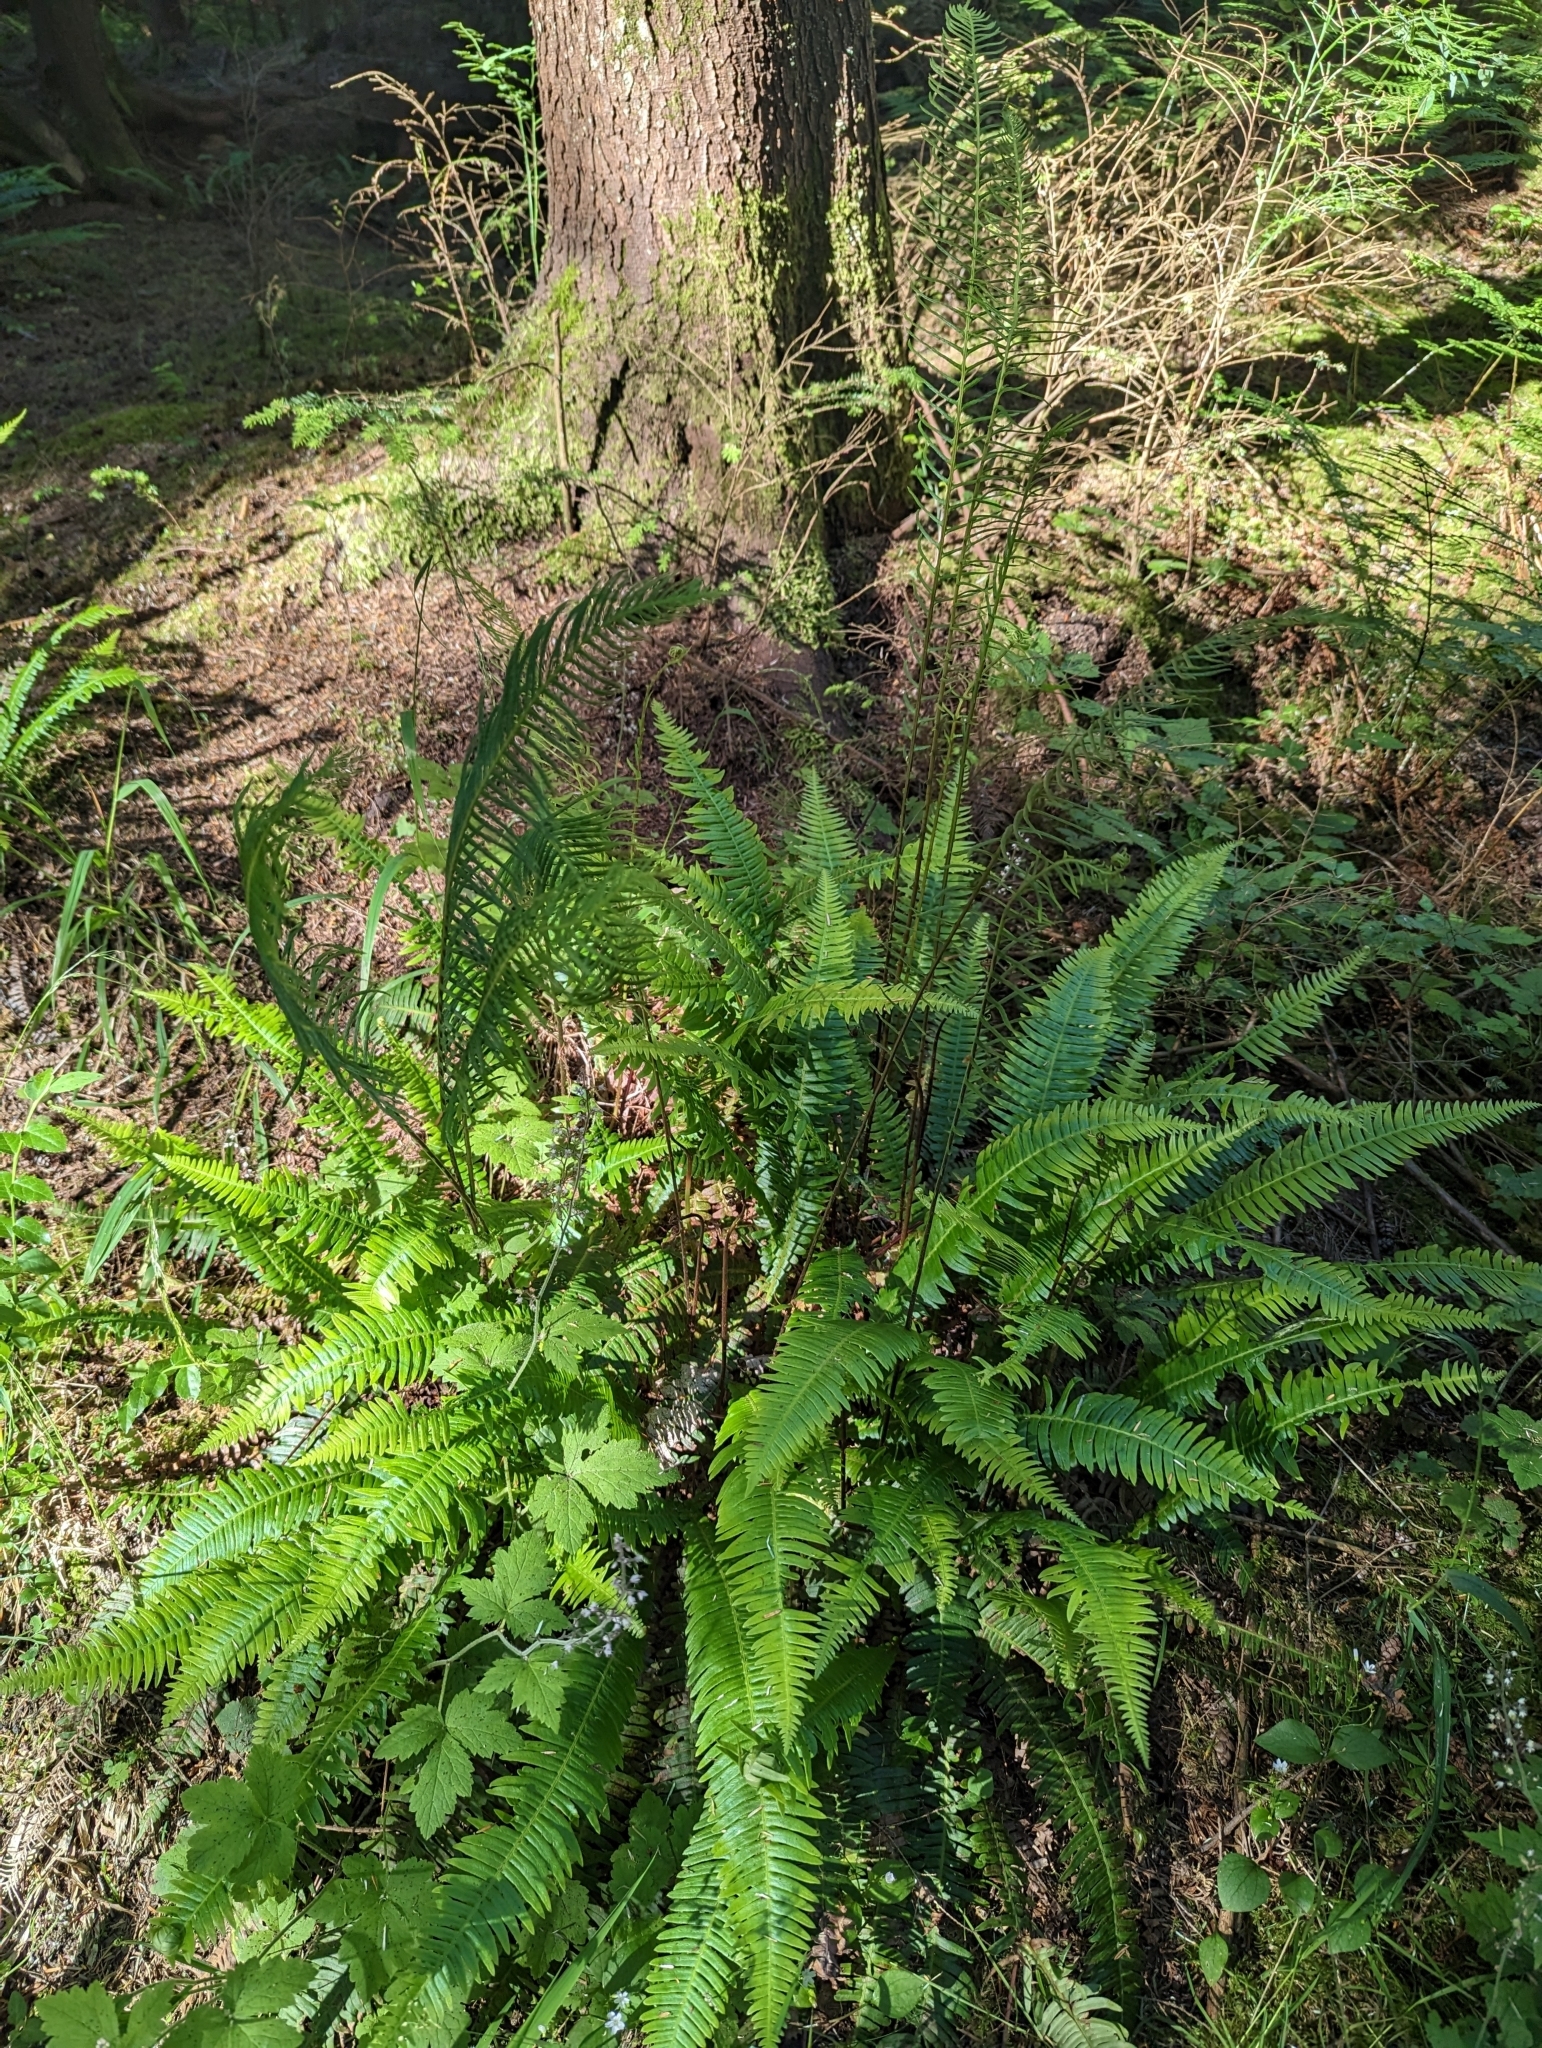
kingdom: Plantae
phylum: Tracheophyta
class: Polypodiopsida
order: Polypodiales
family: Blechnaceae
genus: Struthiopteris
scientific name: Struthiopteris spicant
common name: Deer fern
